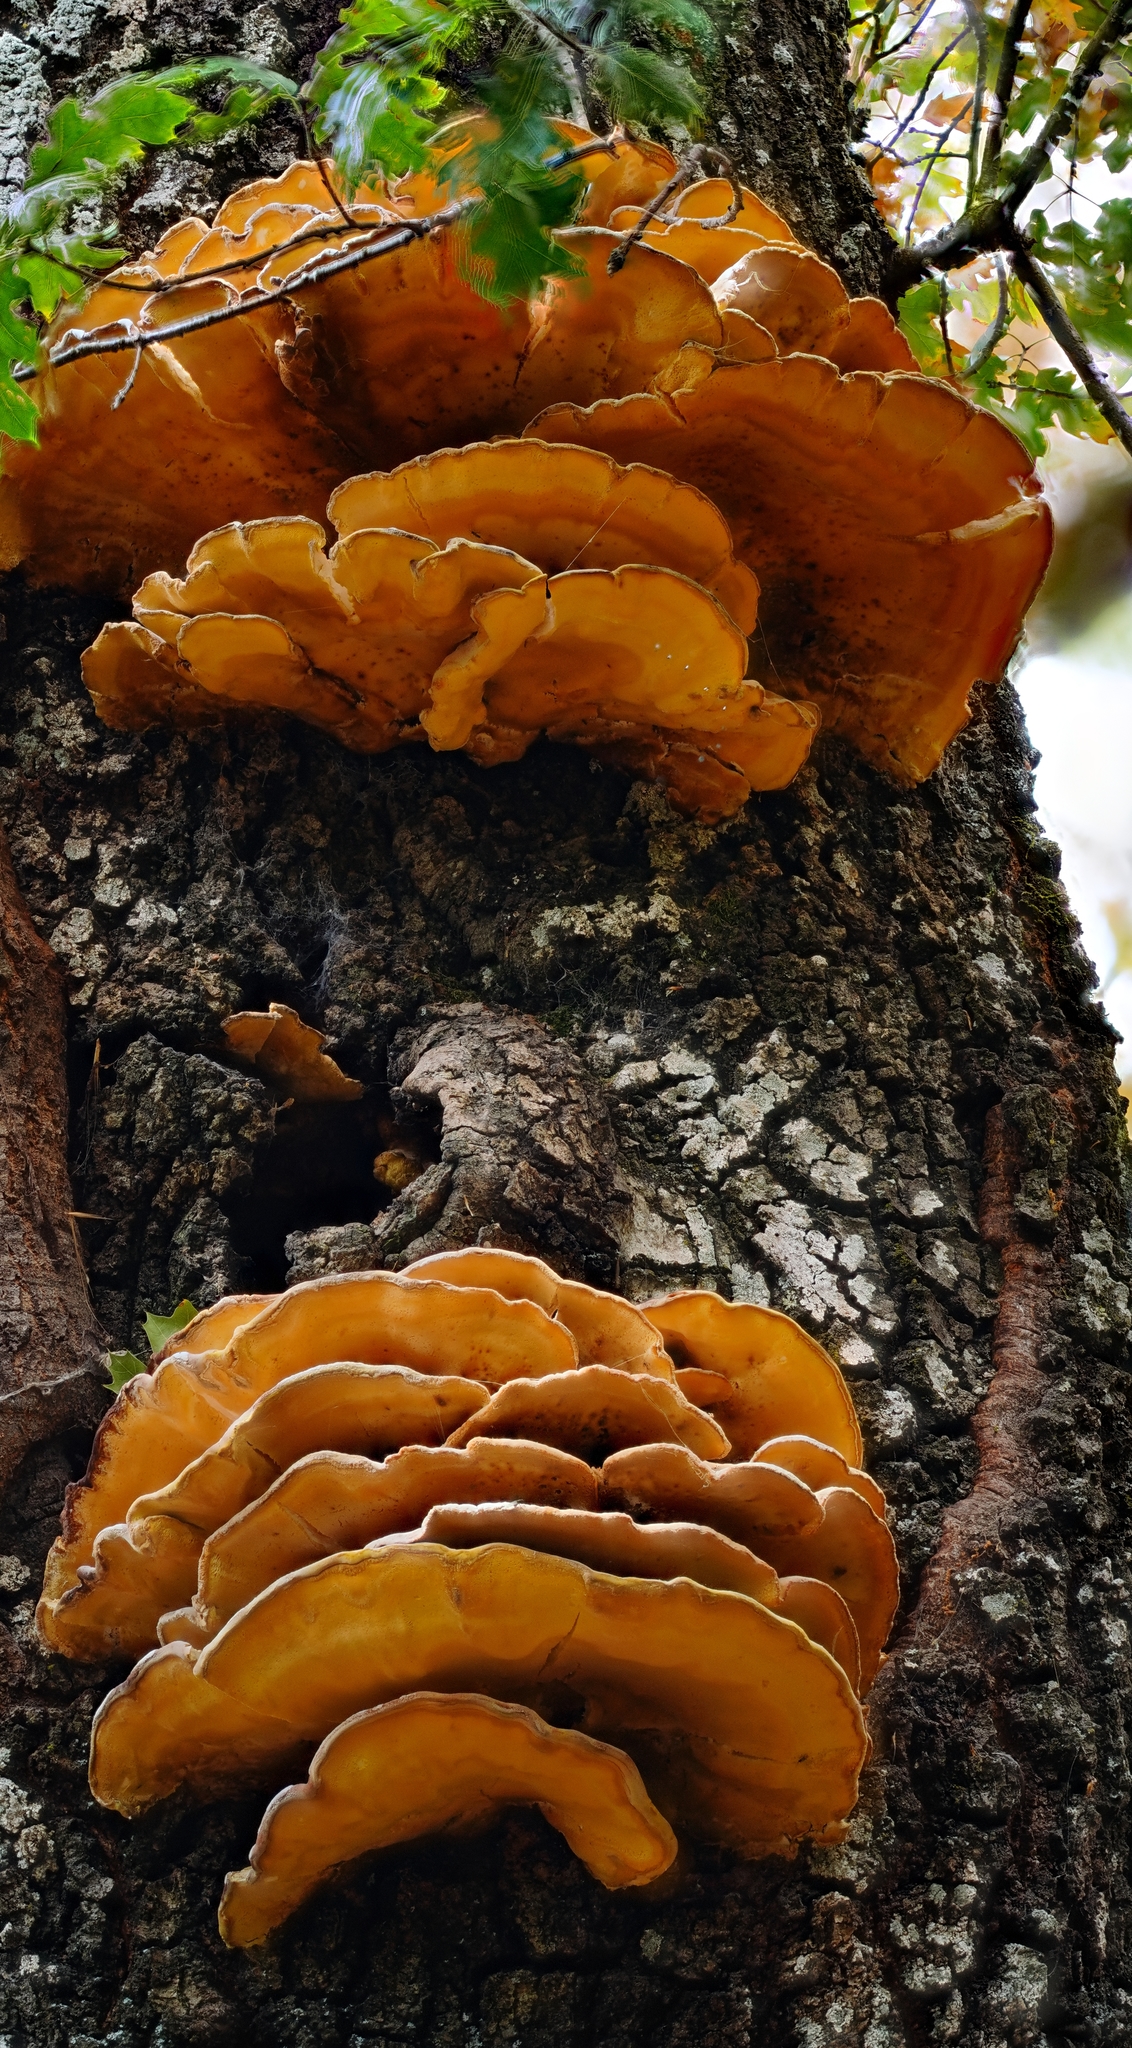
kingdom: Fungi
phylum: Basidiomycota
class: Agaricomycetes
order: Polyporales
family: Laetiporaceae
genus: Laetiporus
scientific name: Laetiporus gilbertsonii
